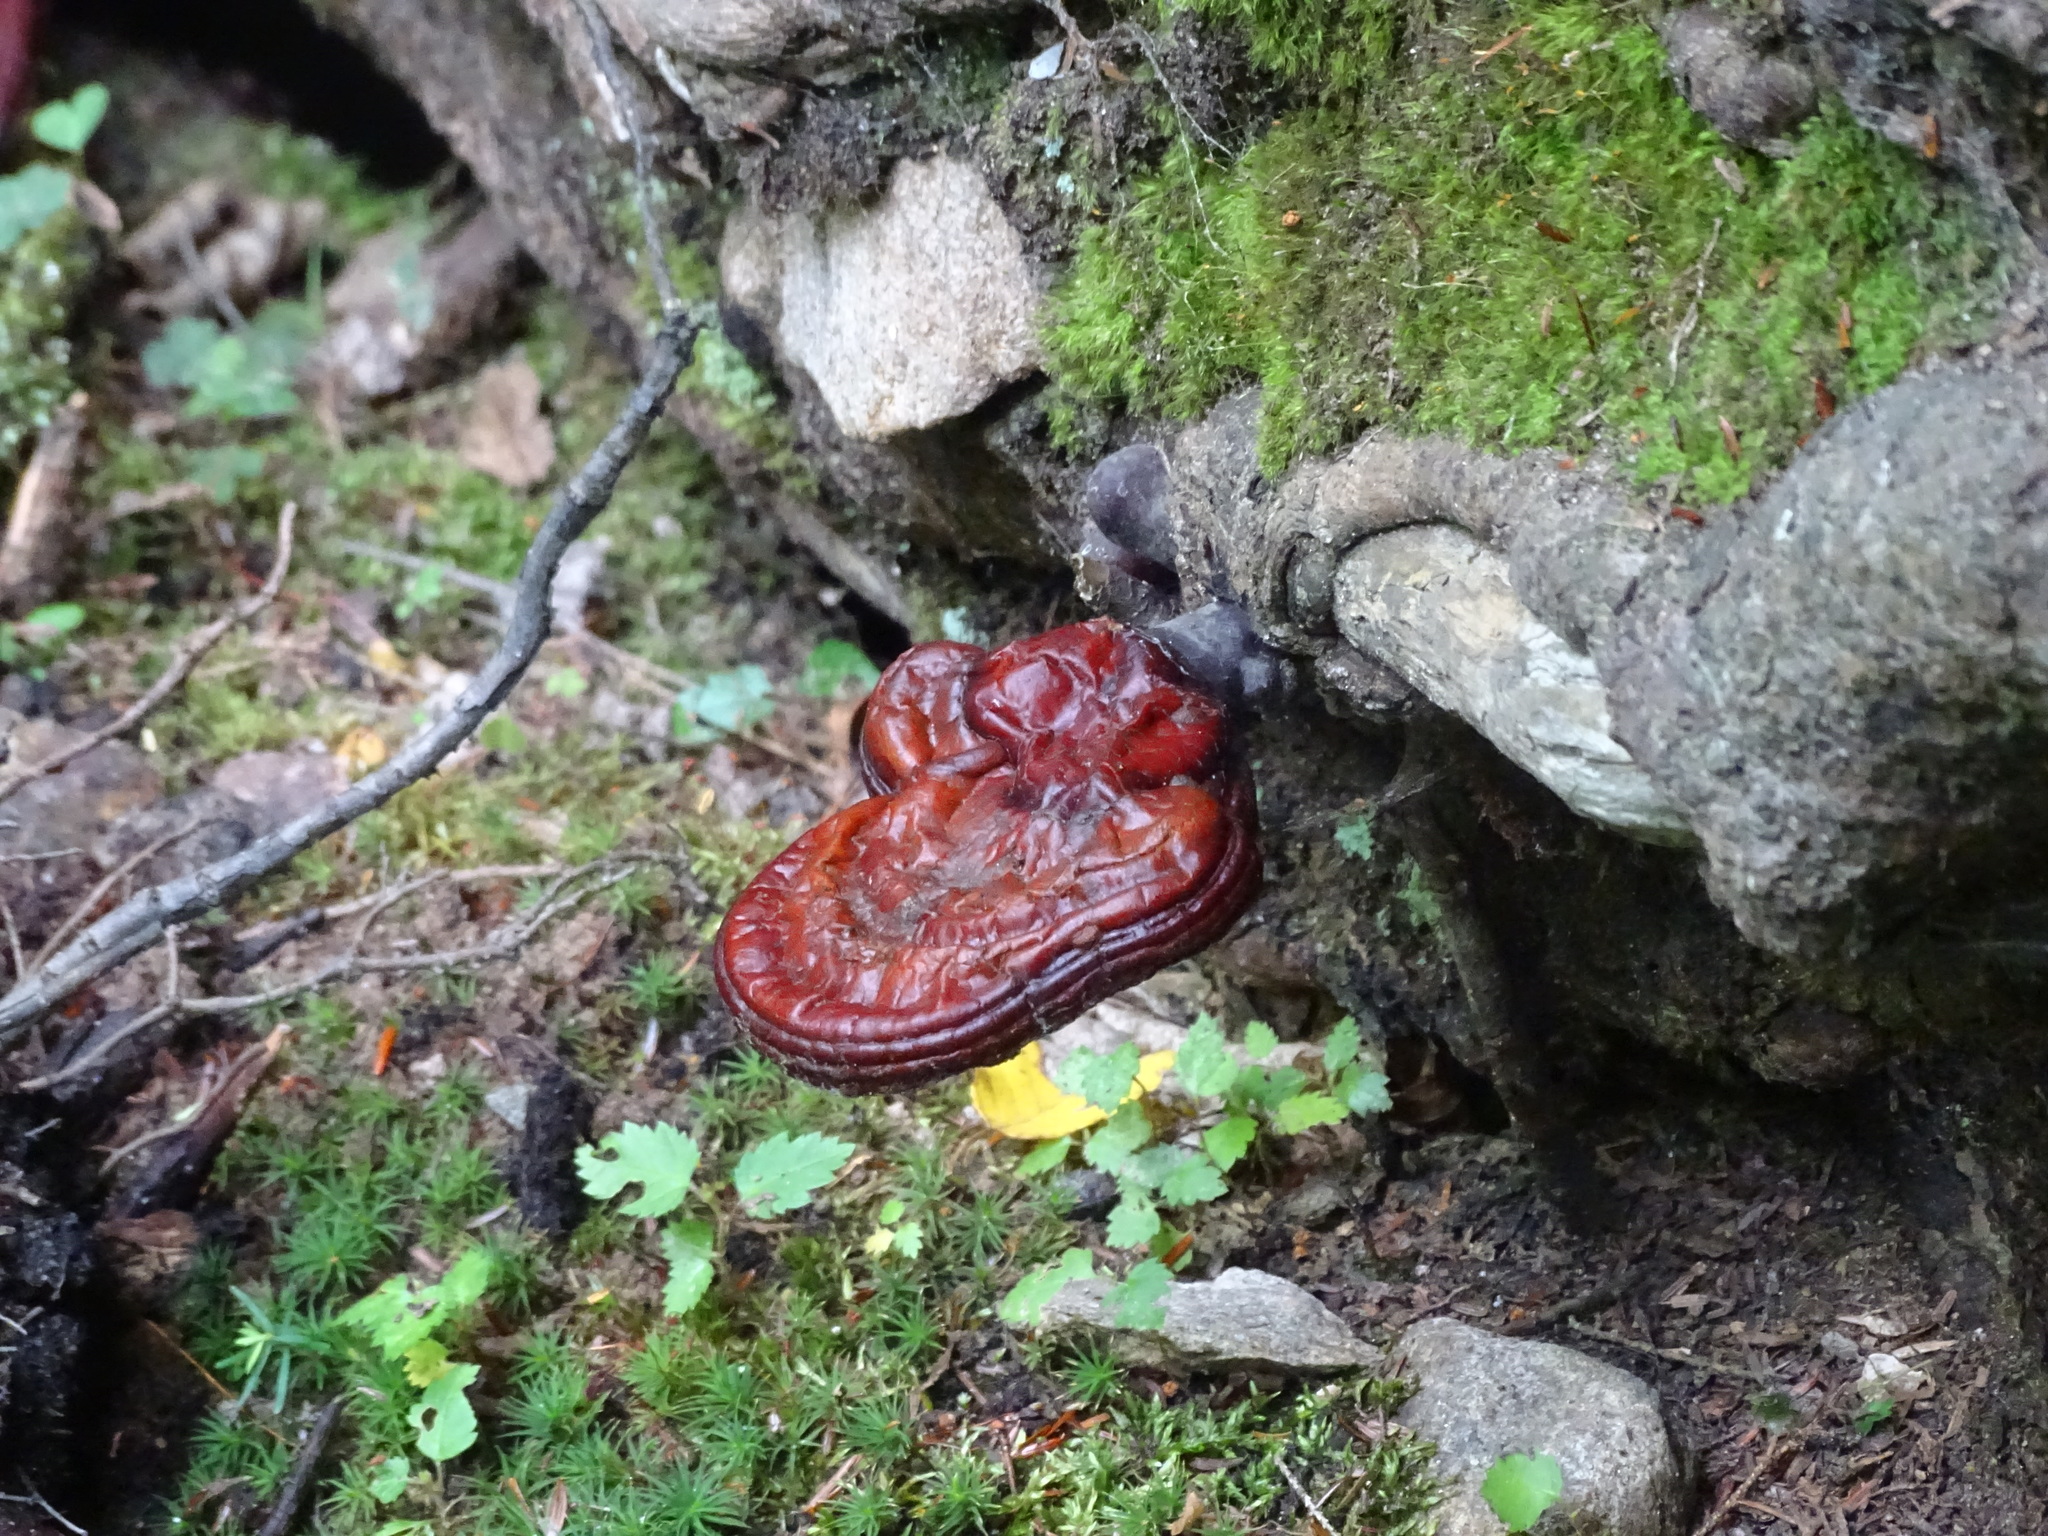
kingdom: Fungi
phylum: Basidiomycota
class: Agaricomycetes
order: Polyporales
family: Polyporaceae
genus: Ganoderma
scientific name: Ganoderma tsugae
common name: Hemlock varnish shelf
